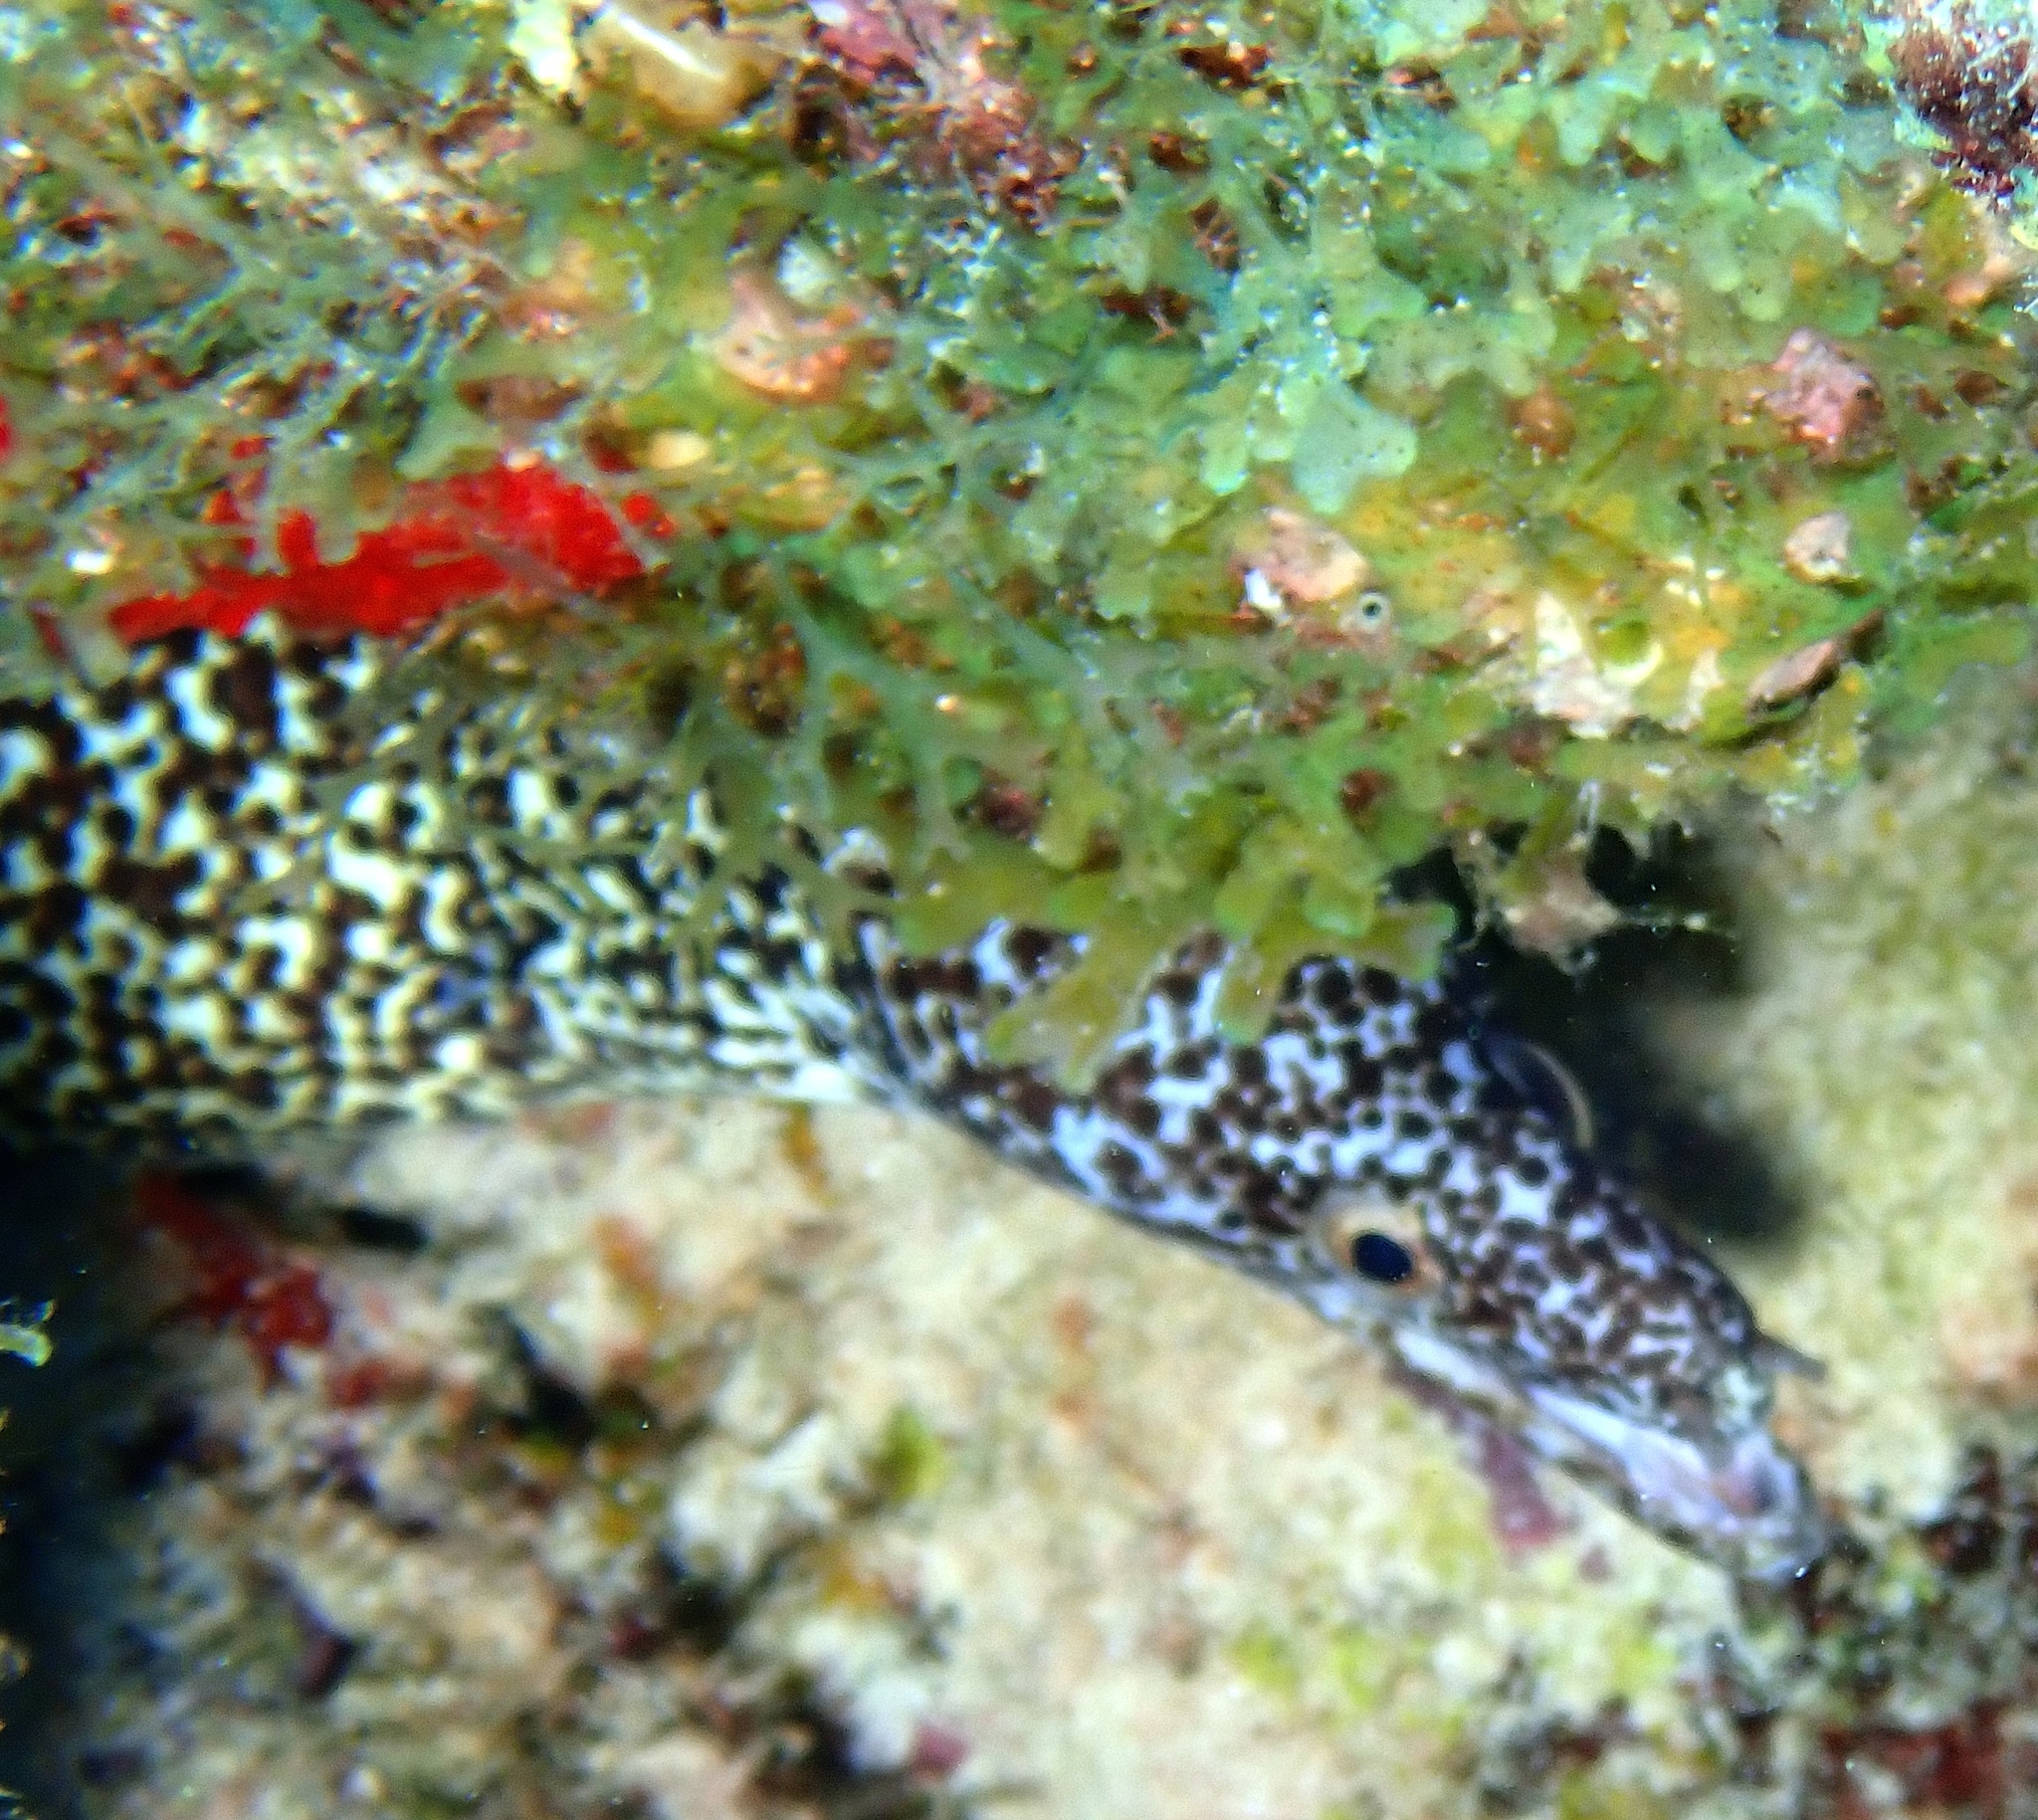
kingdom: Animalia
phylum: Chordata
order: Anguilliformes
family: Muraenidae
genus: Gymnothorax
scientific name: Gymnothorax moringa
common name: Spotted moray
